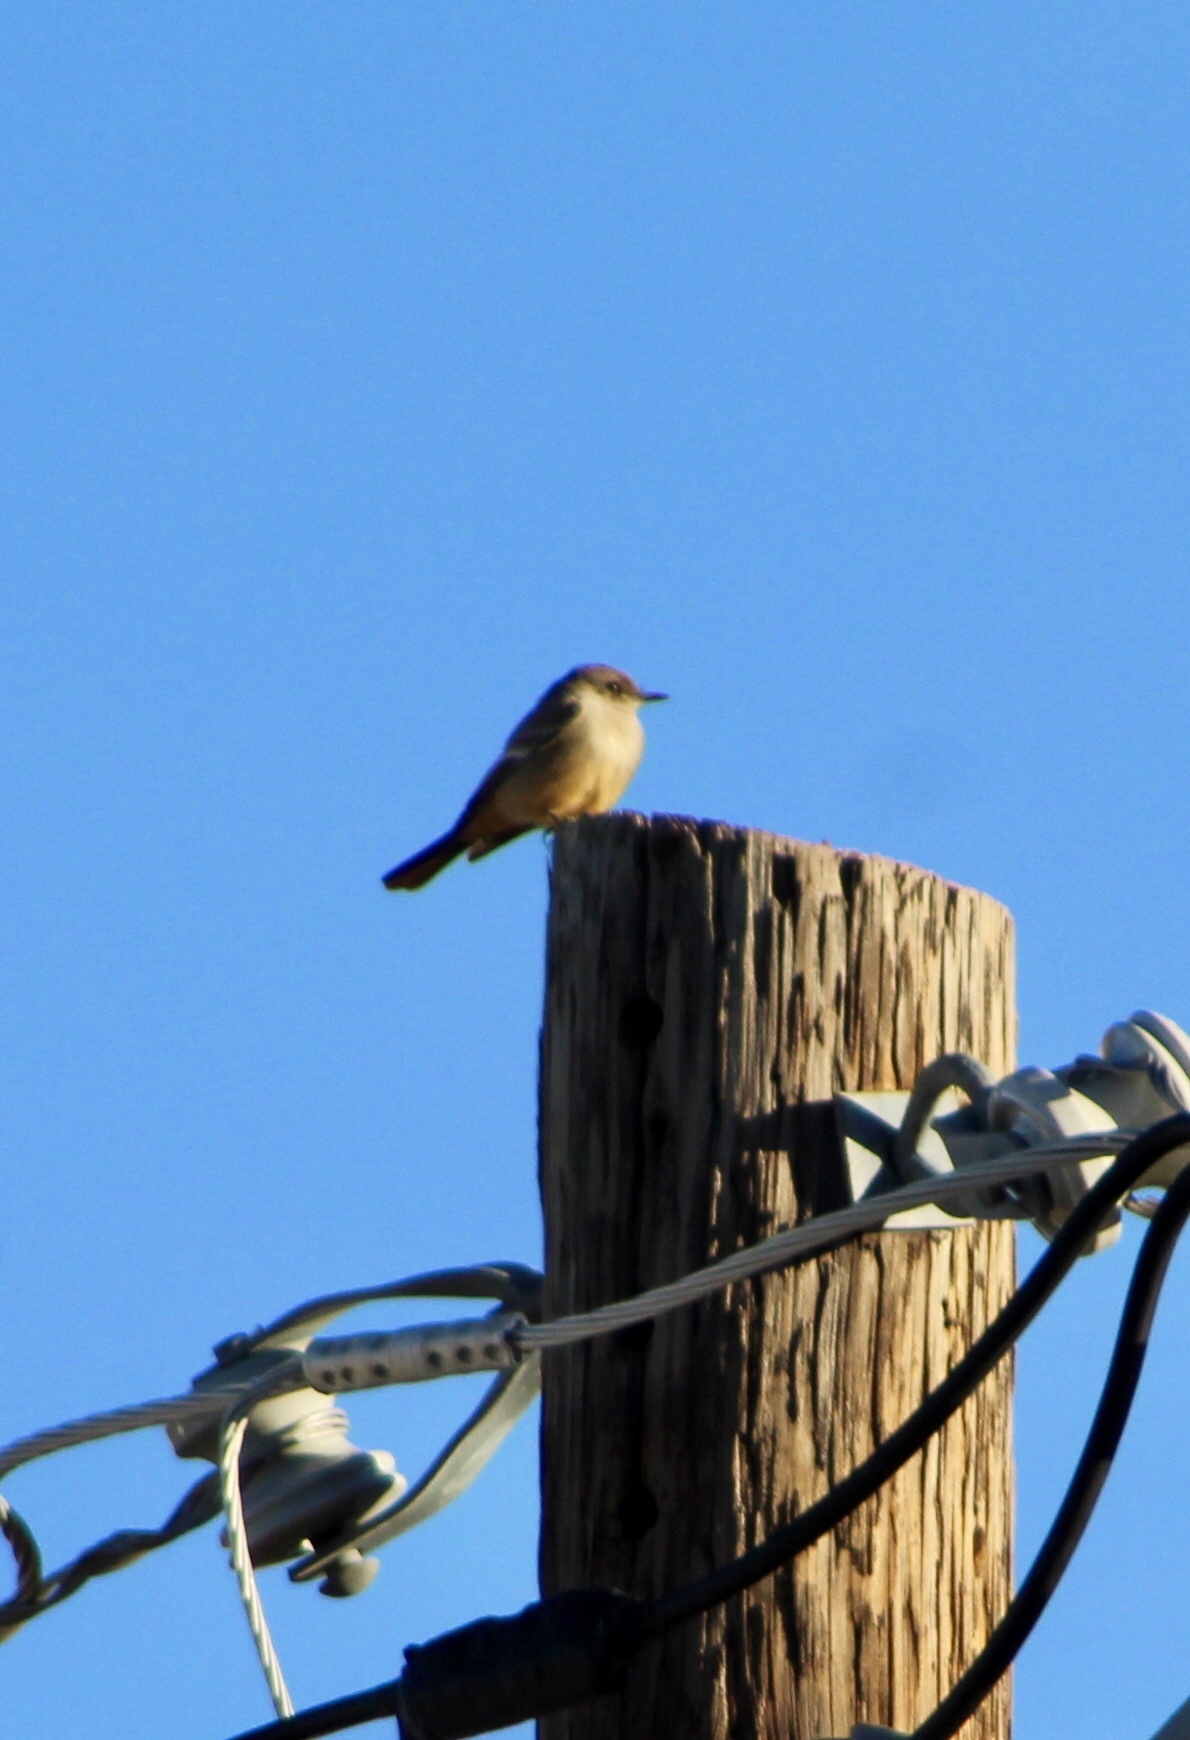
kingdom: Animalia
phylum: Chordata
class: Aves
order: Passeriformes
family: Tyrannidae
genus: Sayornis
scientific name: Sayornis saya
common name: Say's phoebe
